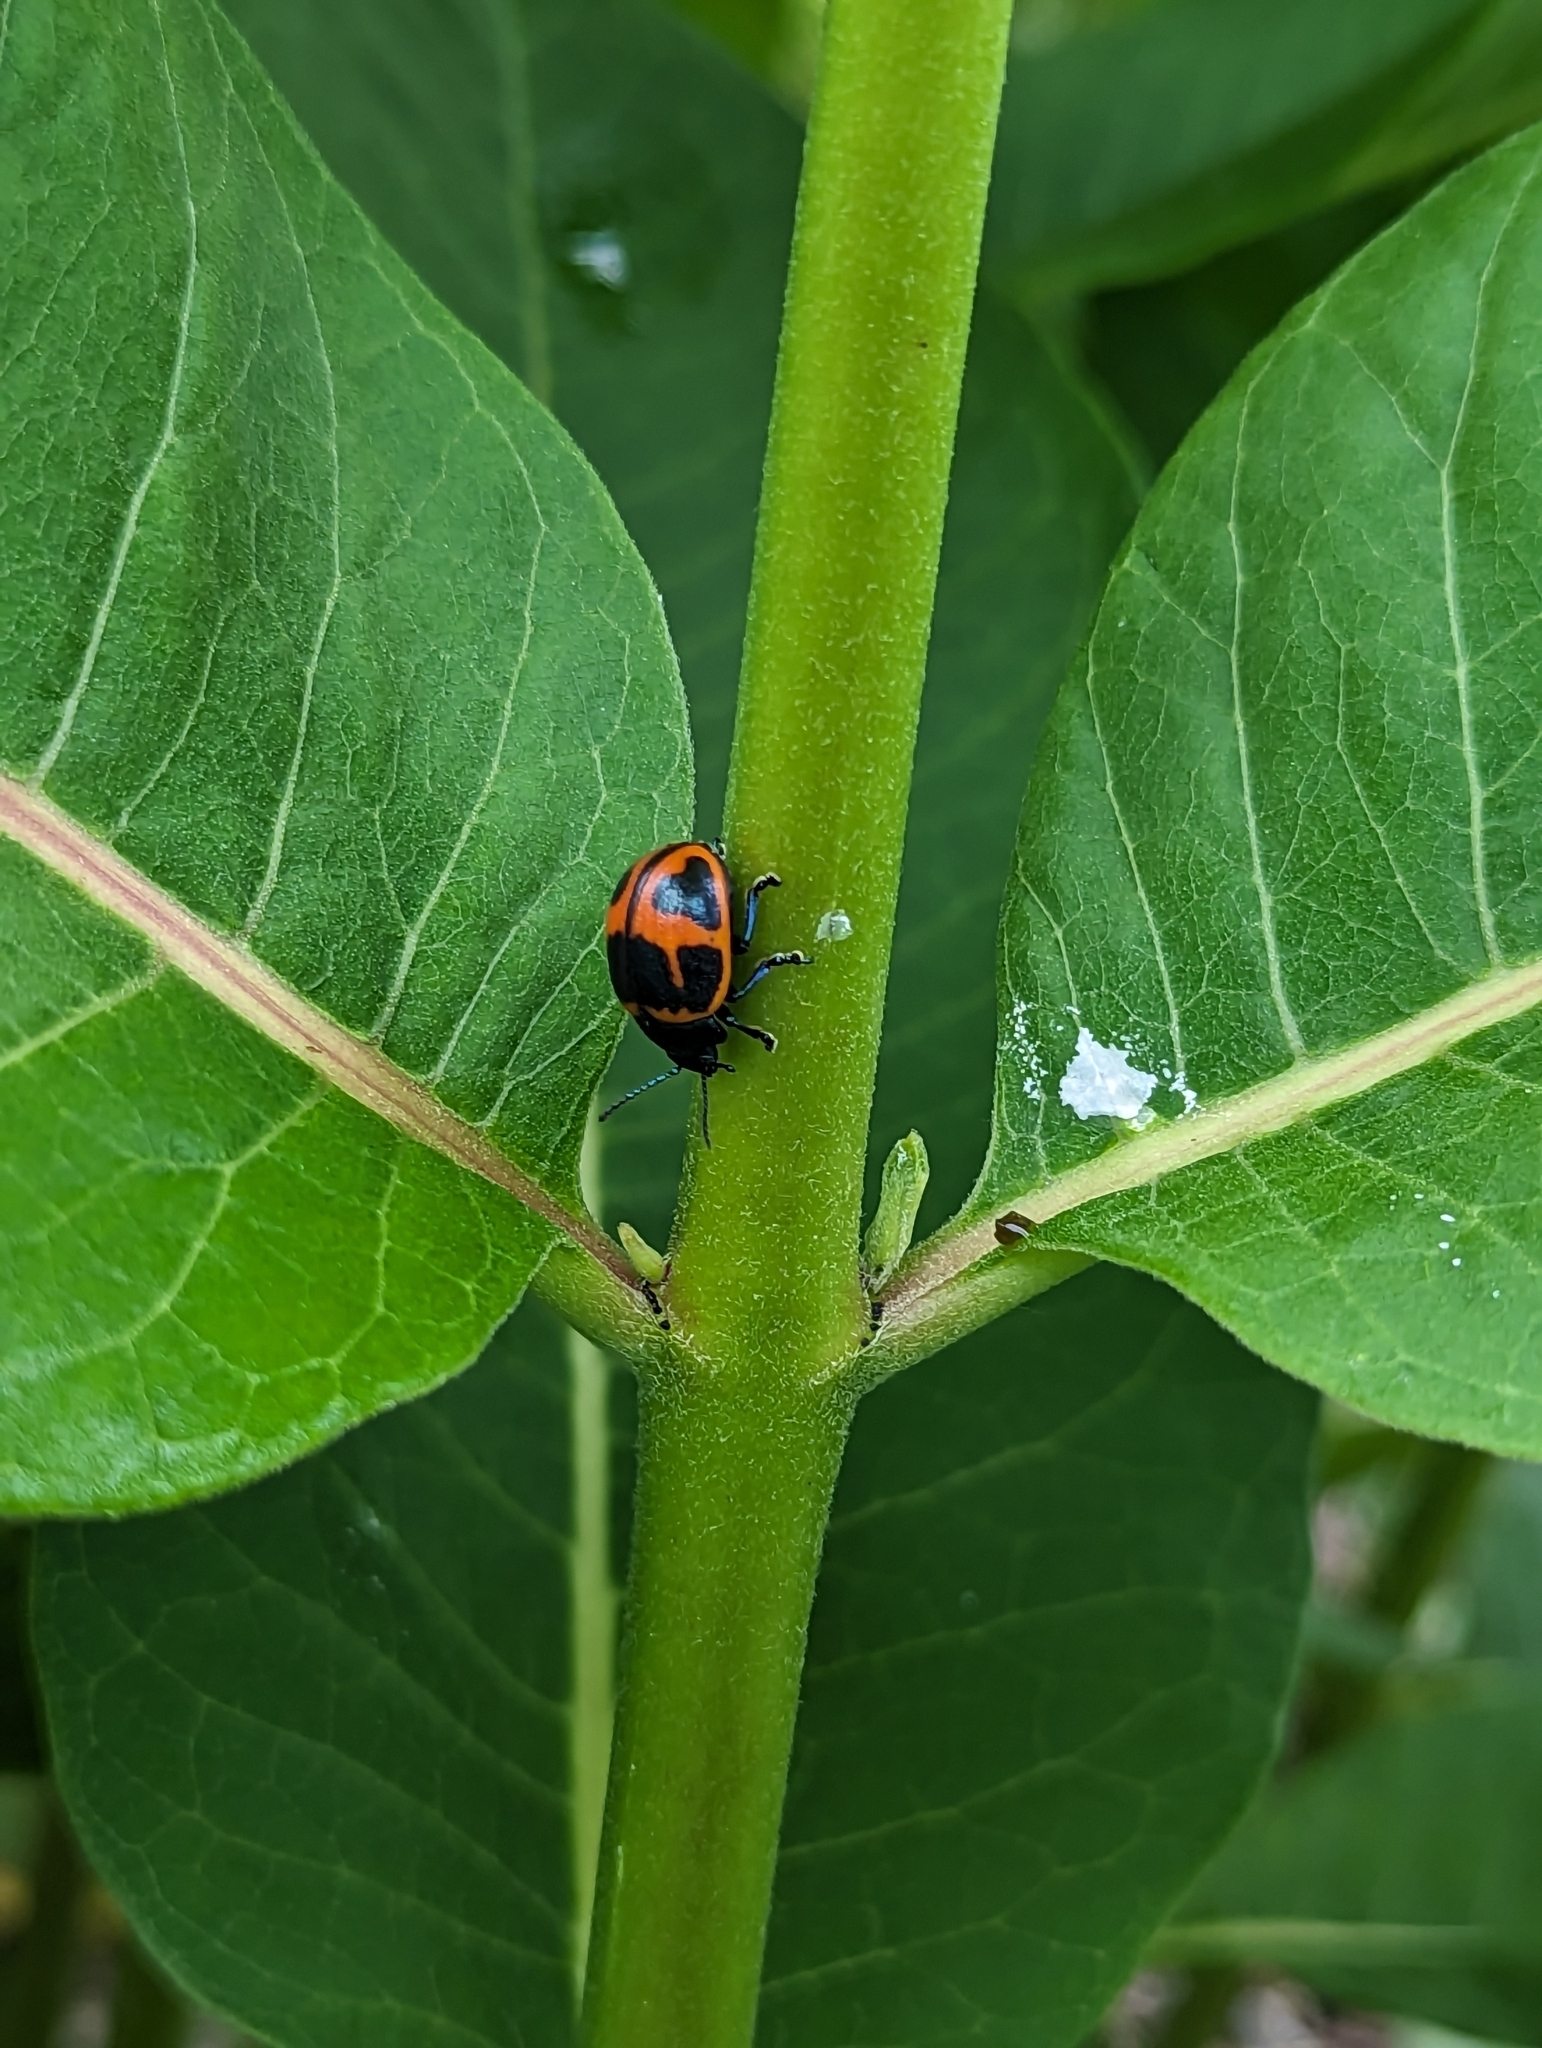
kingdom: Animalia
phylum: Arthropoda
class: Insecta
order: Coleoptera
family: Chrysomelidae
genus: Labidomera
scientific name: Labidomera clivicollis
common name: Swamp milkweed leaf beetle
